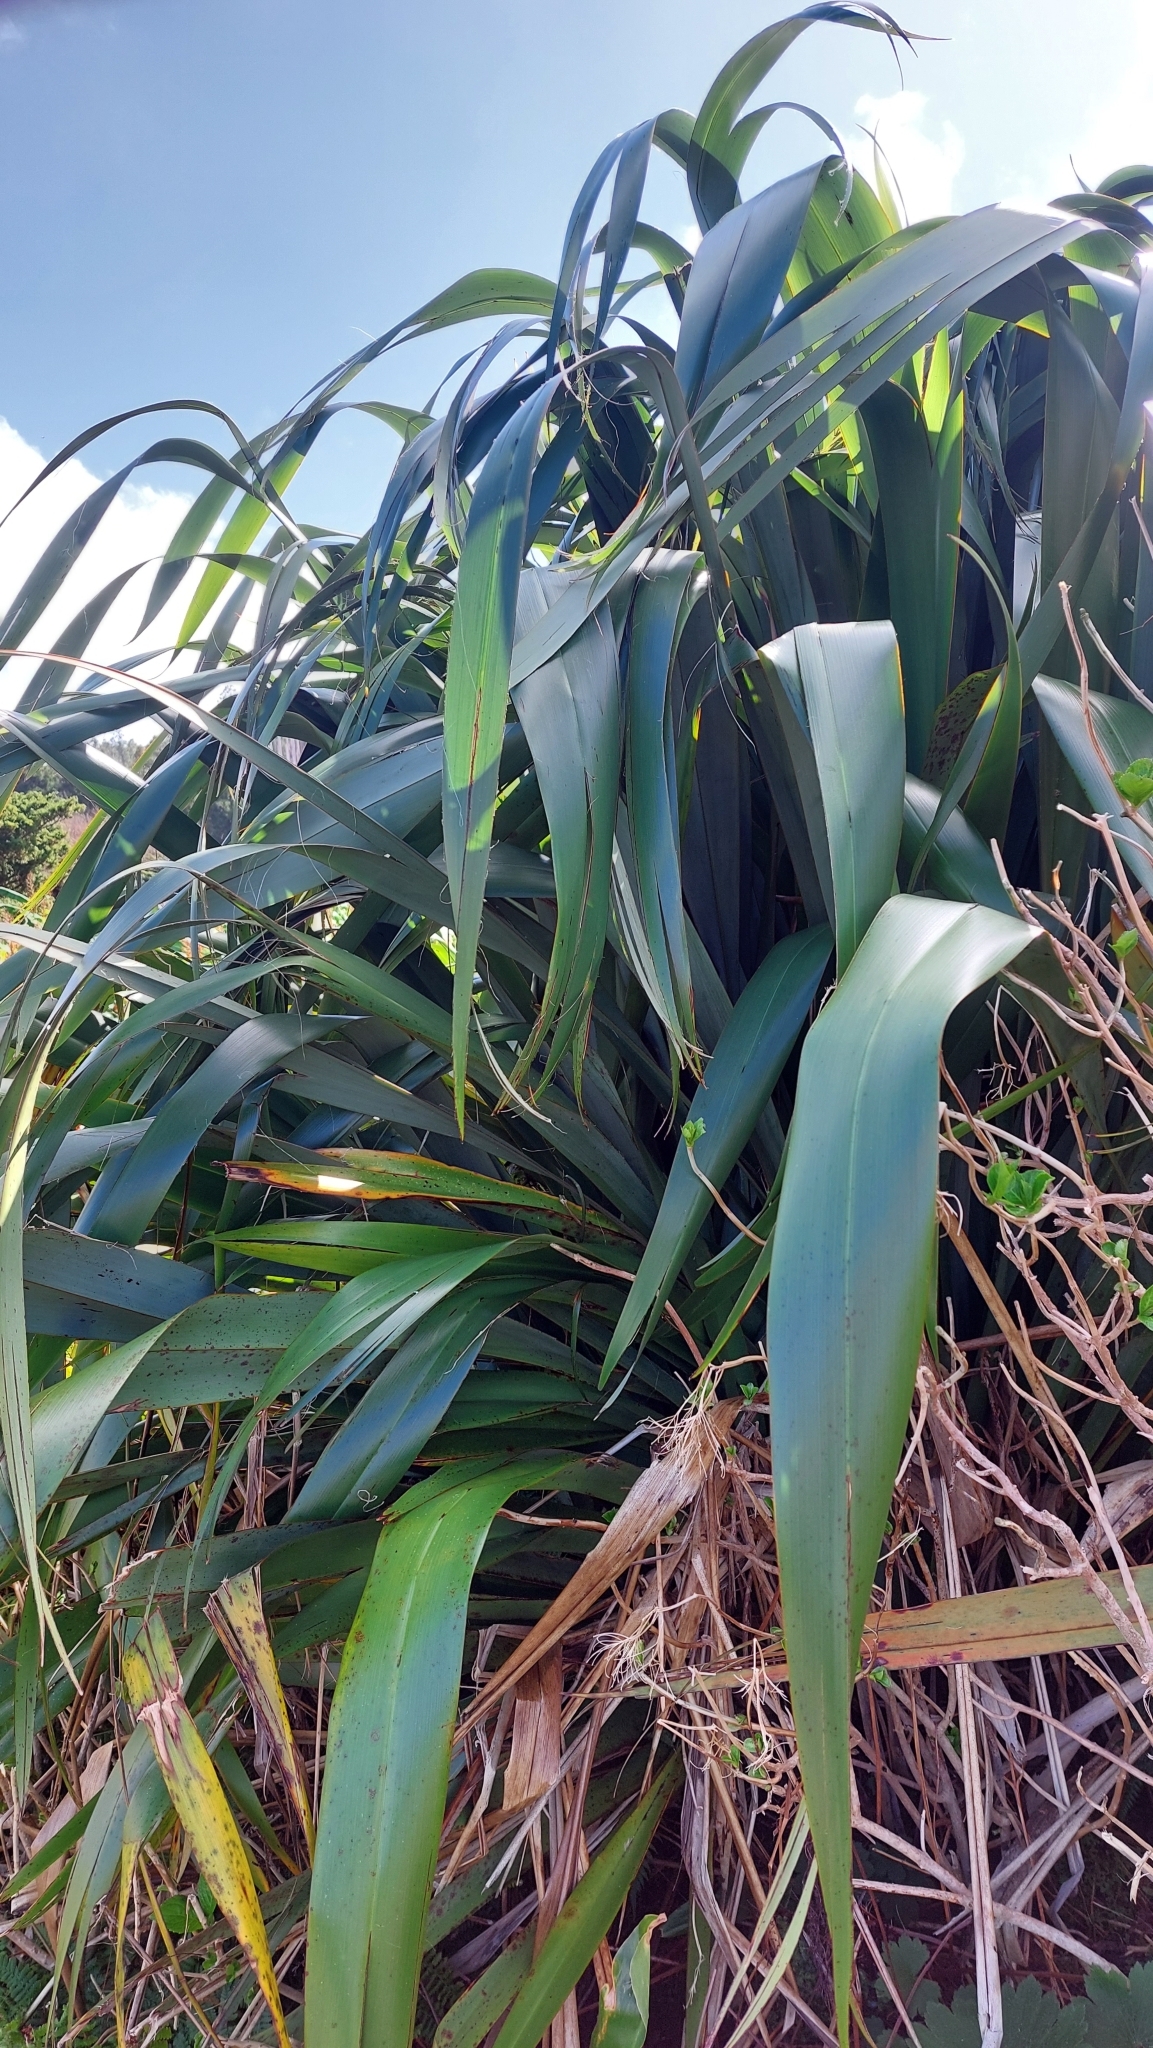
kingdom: Plantae
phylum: Tracheophyta
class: Liliopsida
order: Asparagales
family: Asphodelaceae
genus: Phormium
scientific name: Phormium tenax
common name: New zealand flax
